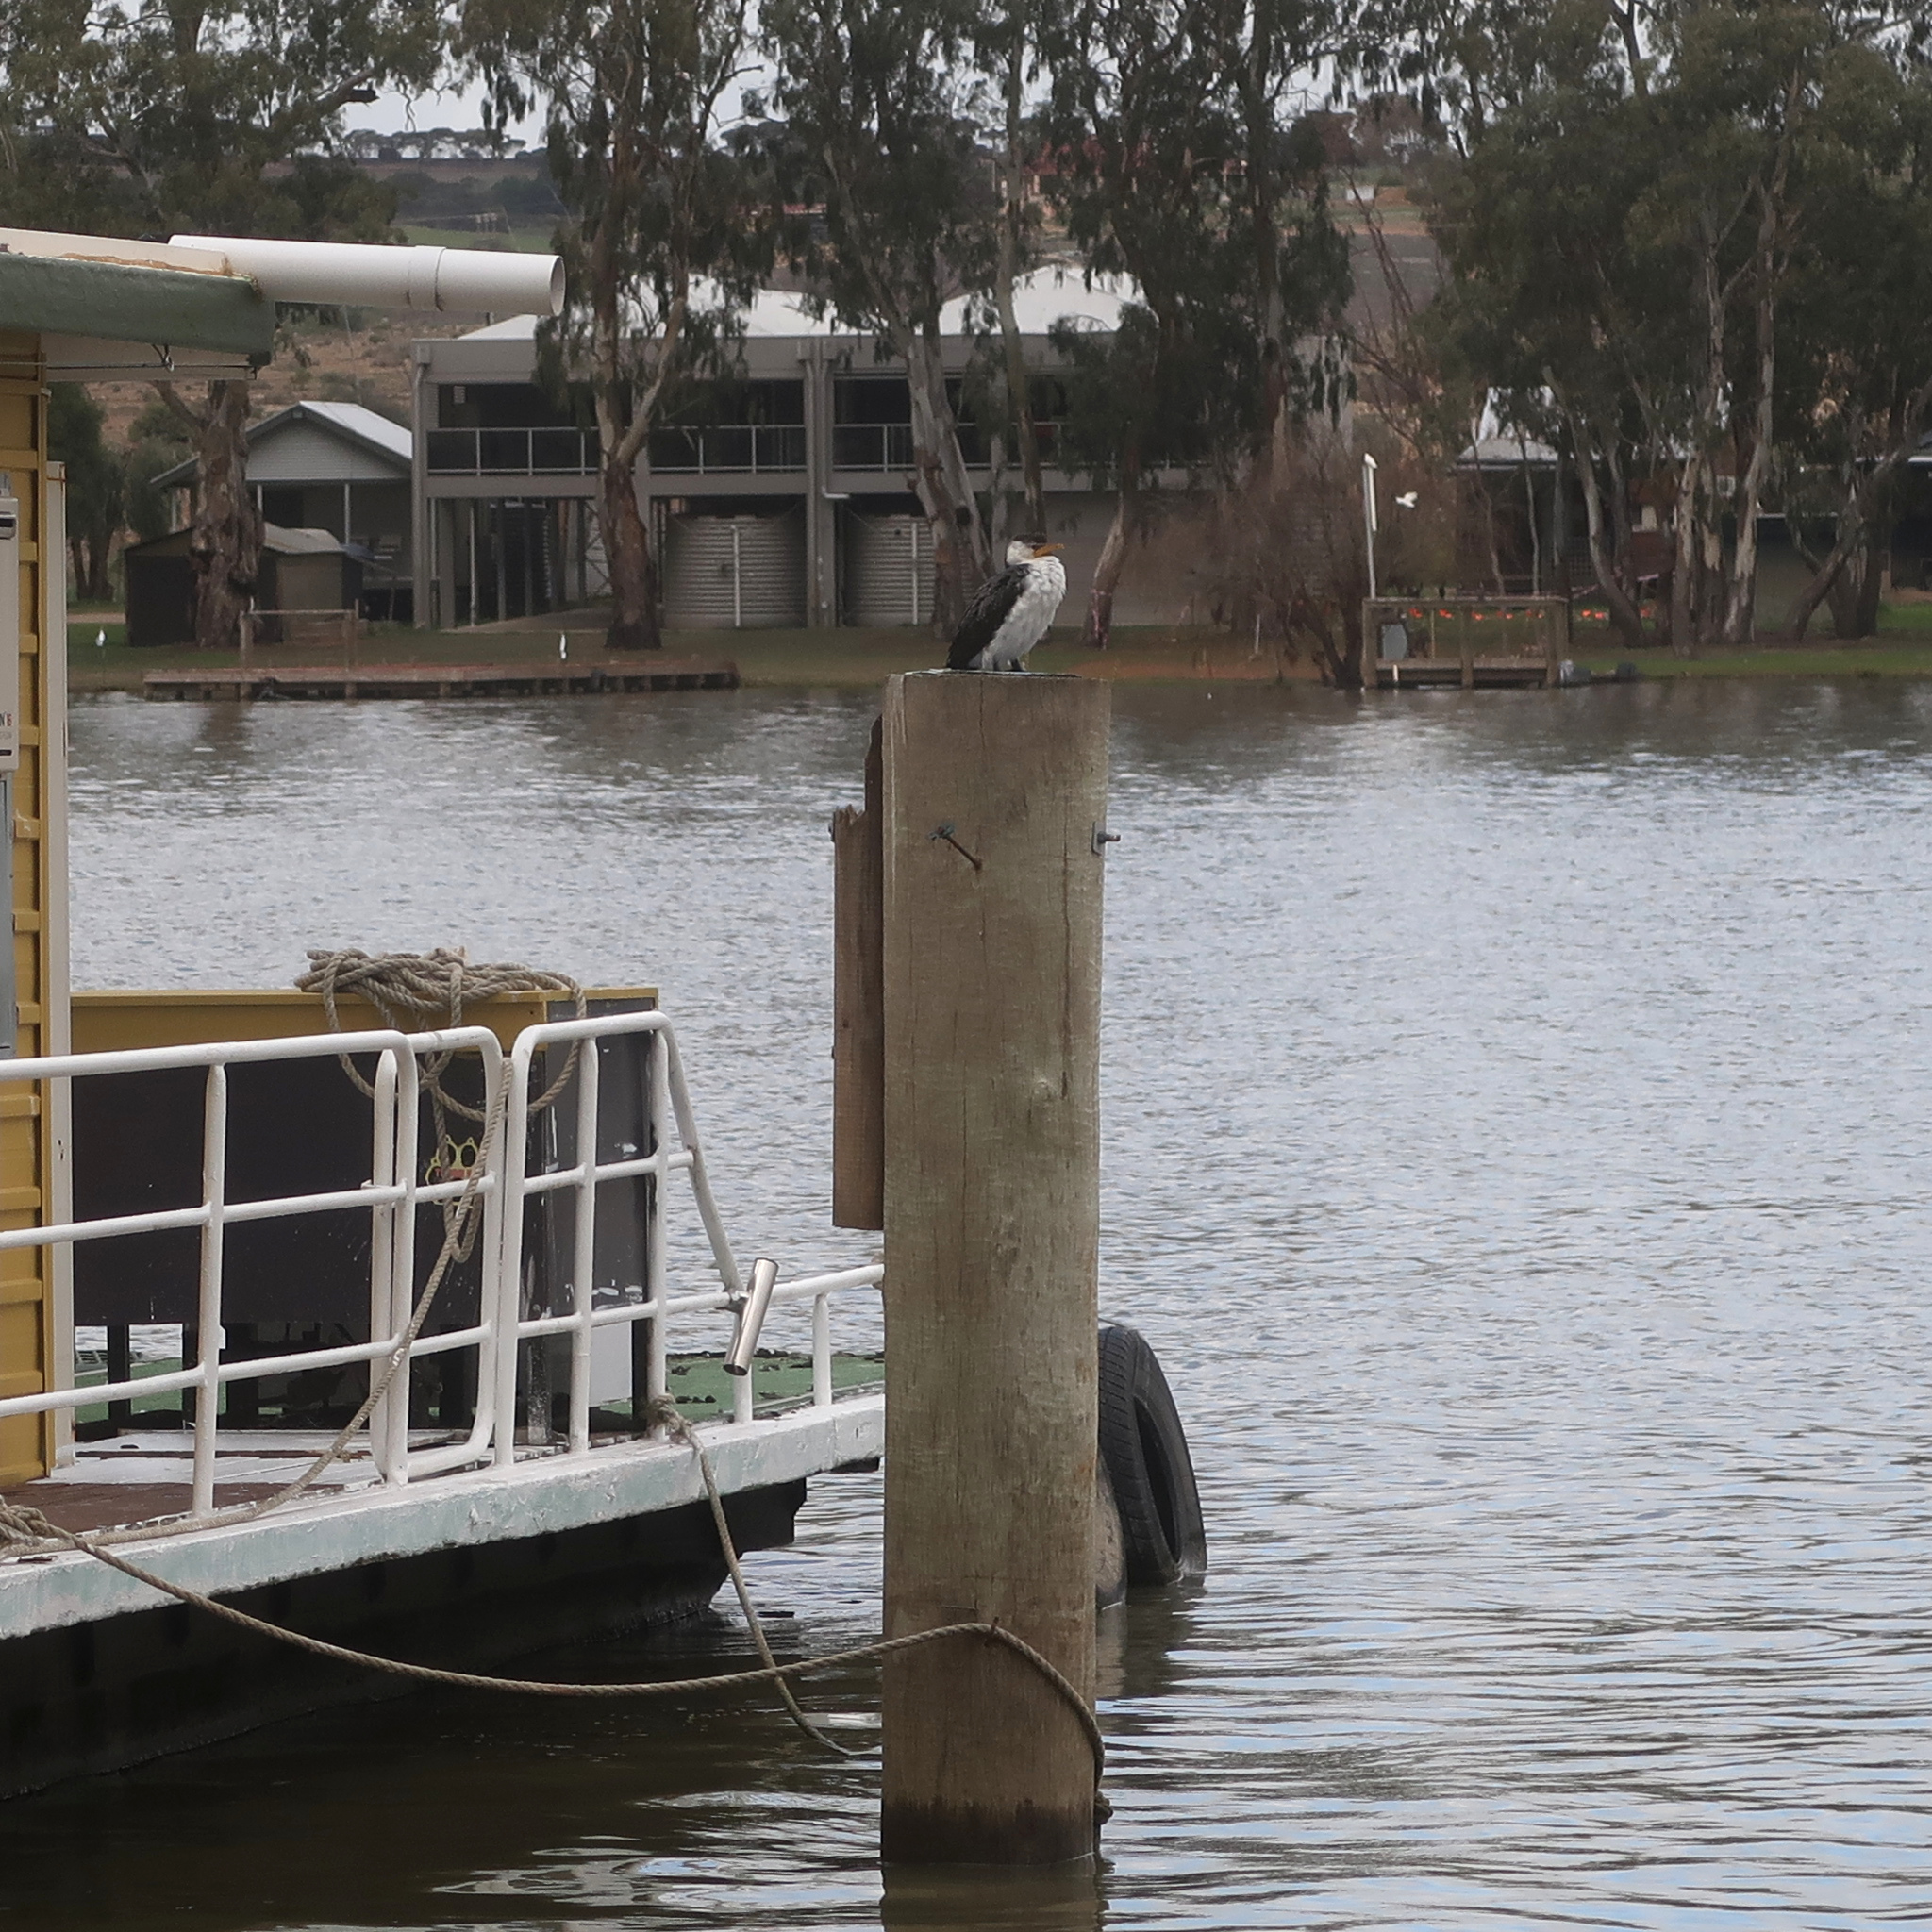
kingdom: Animalia
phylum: Chordata
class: Aves
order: Suliformes
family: Phalacrocoracidae
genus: Microcarbo
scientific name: Microcarbo melanoleucos
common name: Little pied cormorant
